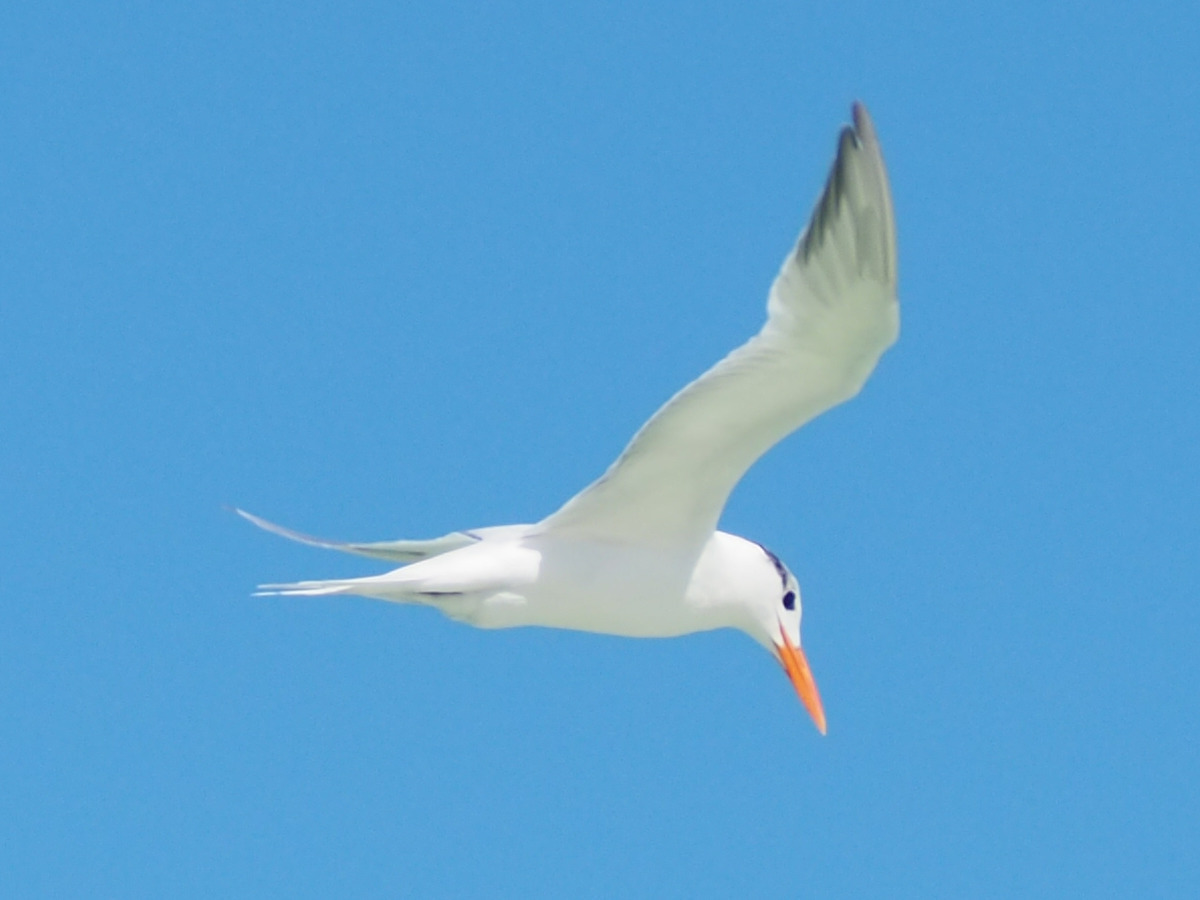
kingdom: Animalia
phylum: Chordata
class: Aves
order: Charadriiformes
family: Laridae
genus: Thalasseus
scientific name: Thalasseus maximus
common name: Royal tern
